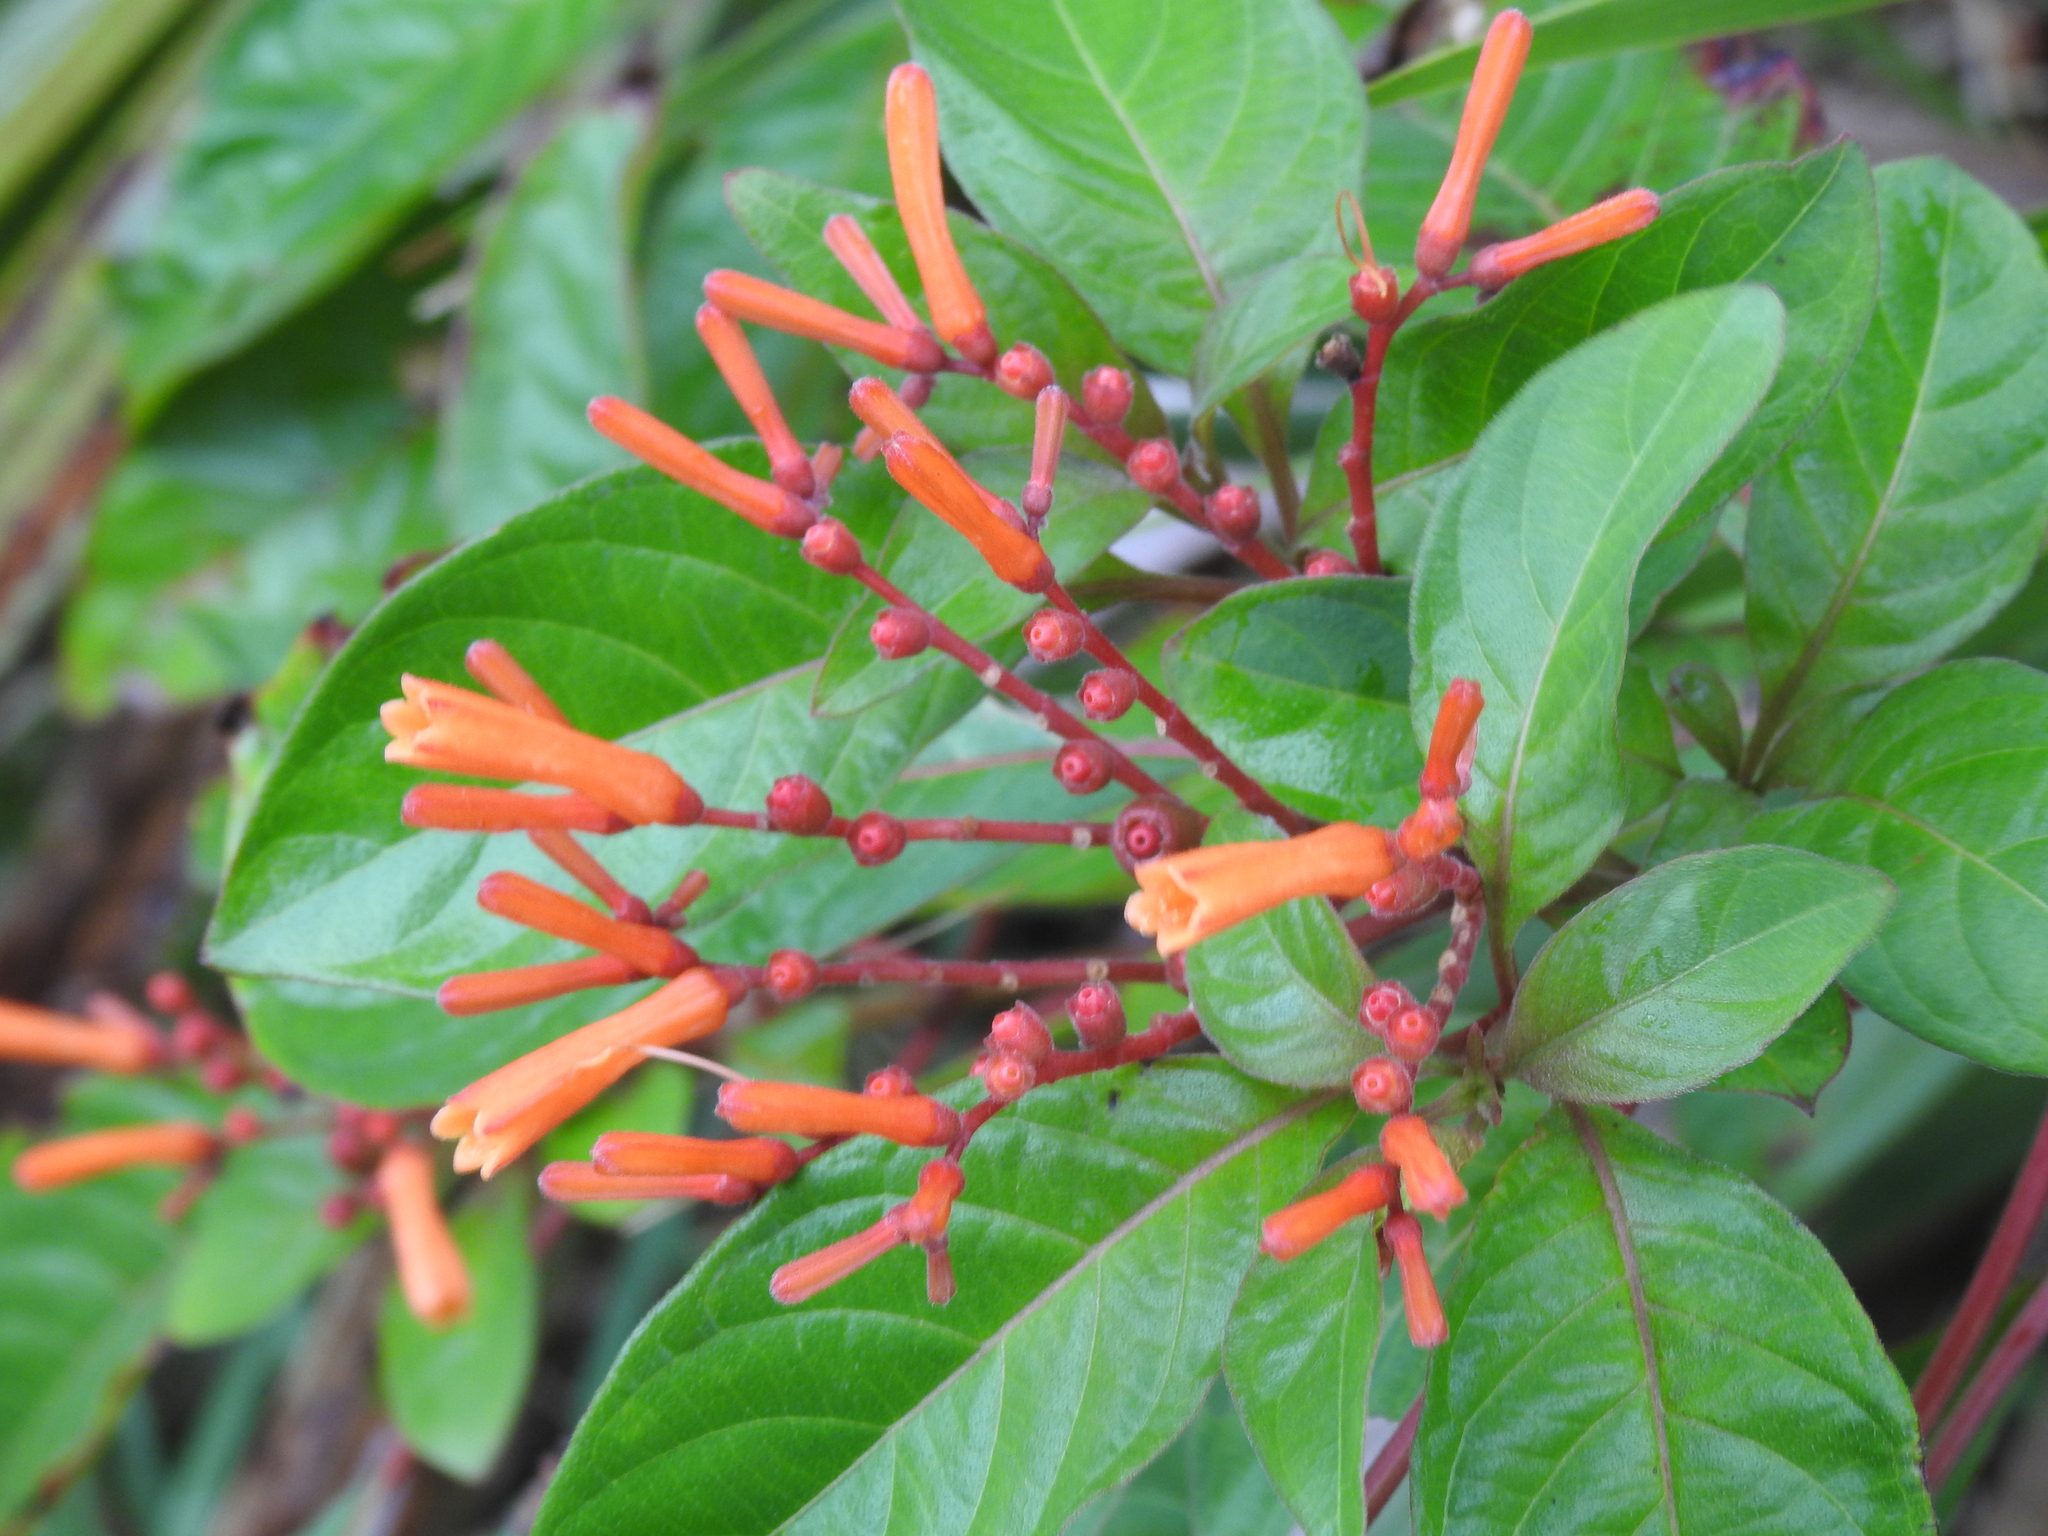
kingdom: Plantae
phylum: Tracheophyta
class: Magnoliopsida
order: Gentianales
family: Rubiaceae
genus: Hamelia
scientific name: Hamelia patens
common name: Redhead
